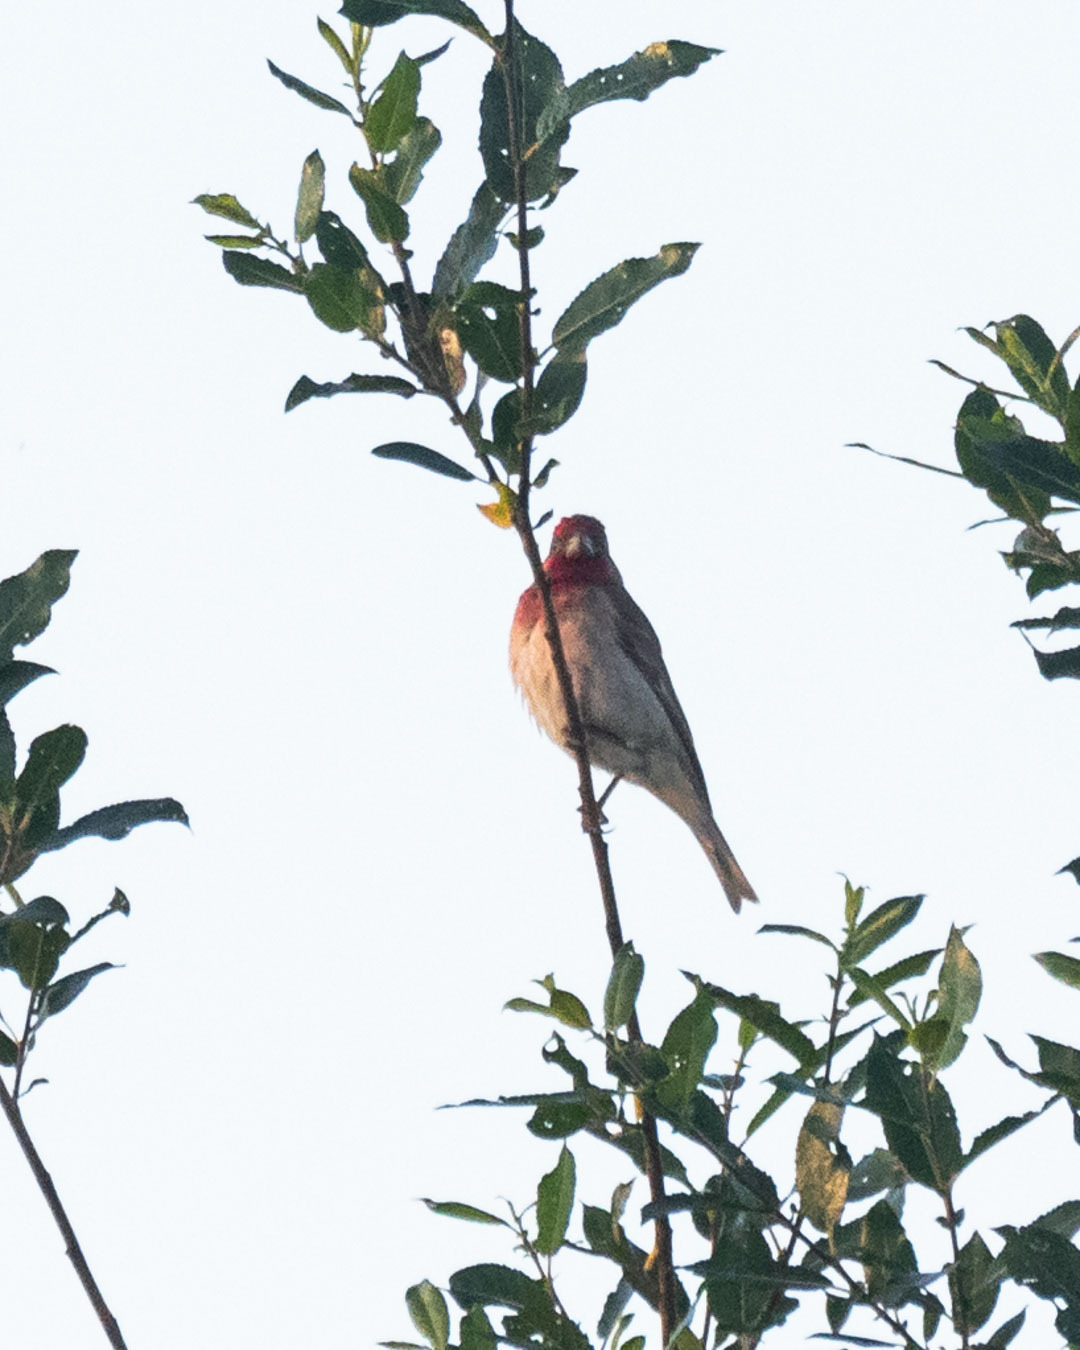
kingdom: Animalia
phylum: Chordata
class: Aves
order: Passeriformes
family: Fringillidae
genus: Carpodacus
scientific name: Carpodacus erythrinus
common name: Common rosefinch
